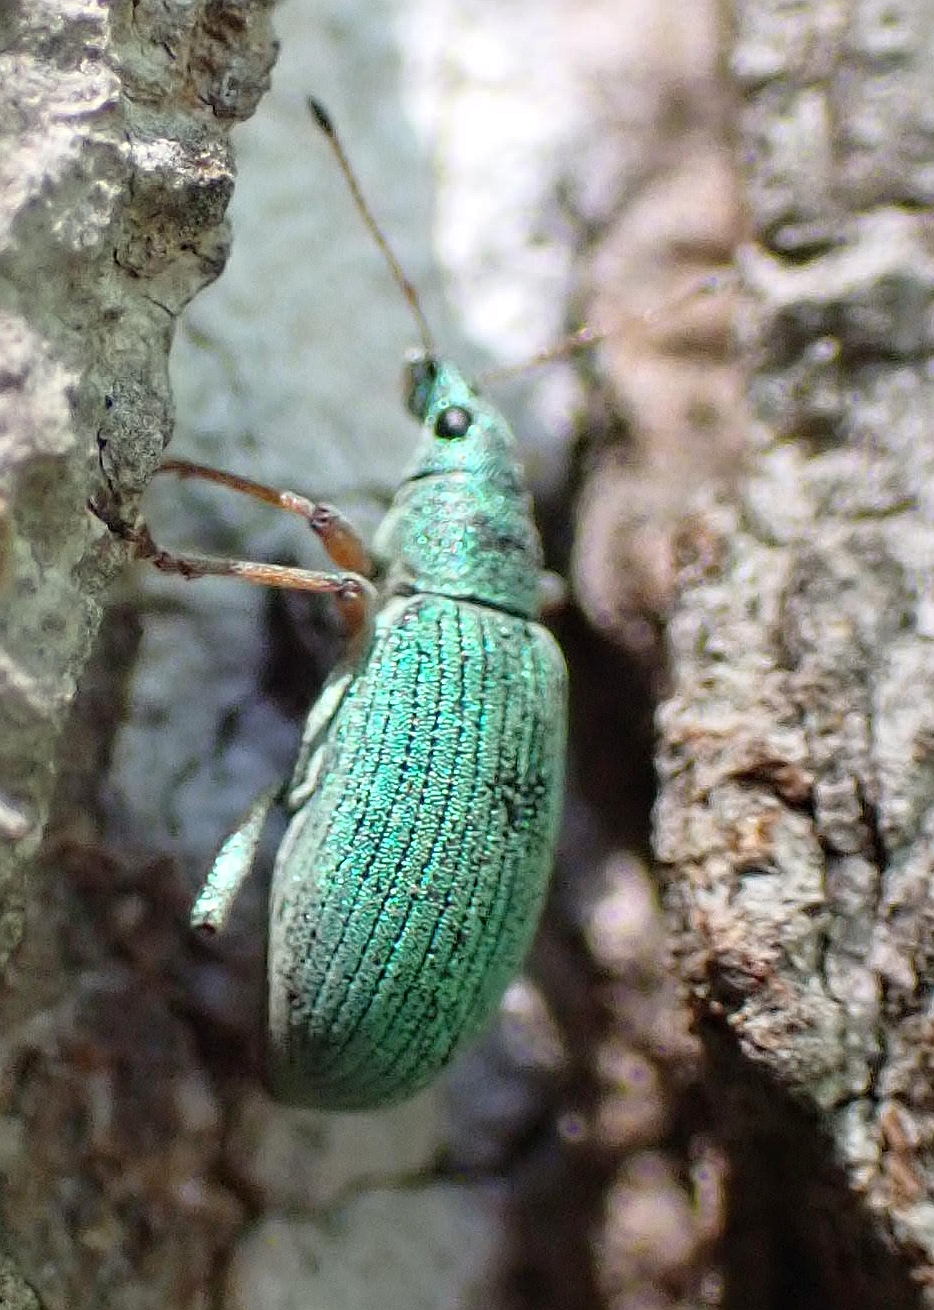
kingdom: Animalia
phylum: Arthropoda
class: Insecta
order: Coleoptera
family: Curculionidae
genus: Polydrusus
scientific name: Polydrusus formosus
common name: Weevil
